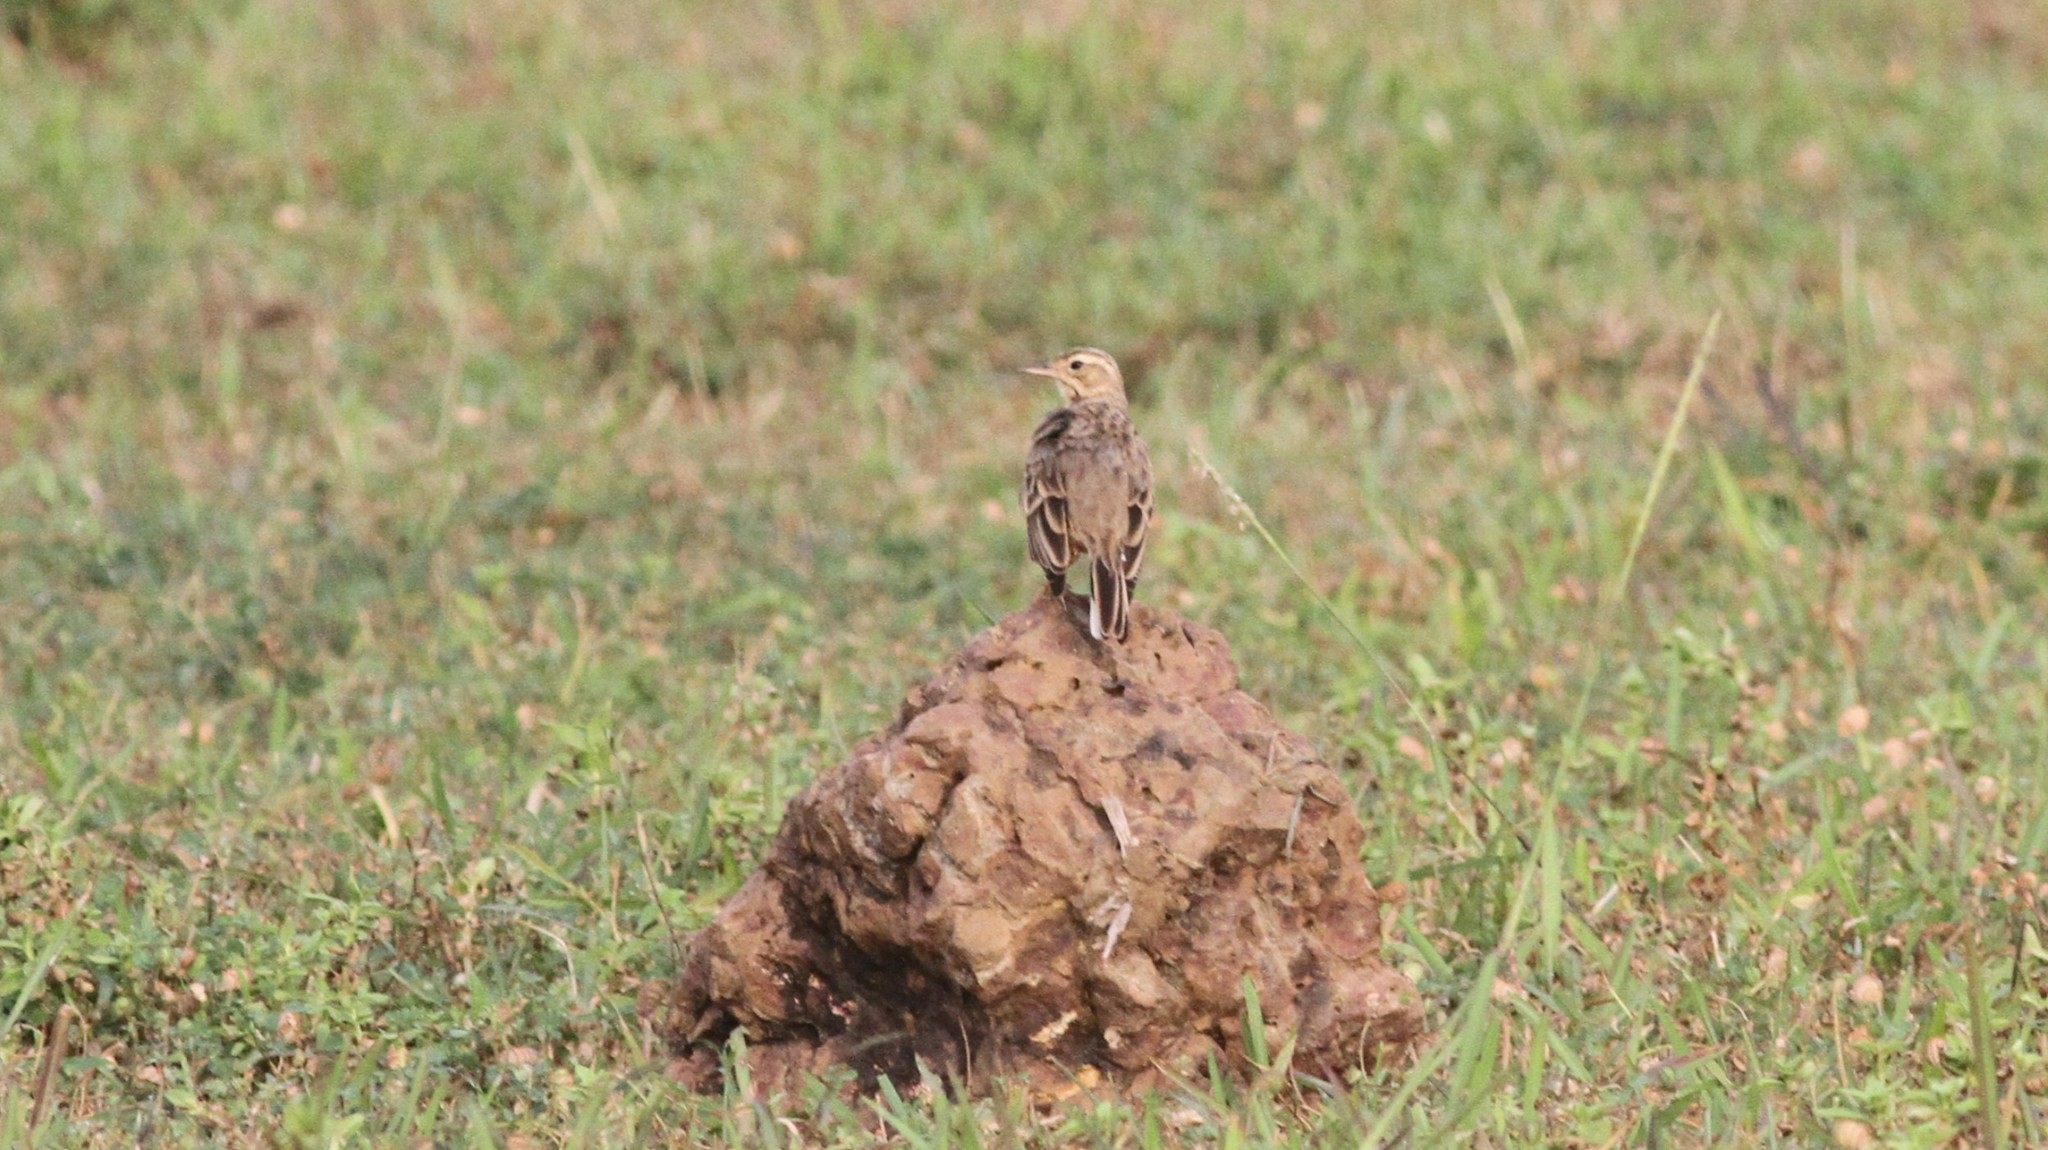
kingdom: Animalia
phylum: Chordata
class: Aves
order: Passeriformes
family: Motacillidae
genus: Anthus
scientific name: Anthus rufulus
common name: Paddyfield pipit
